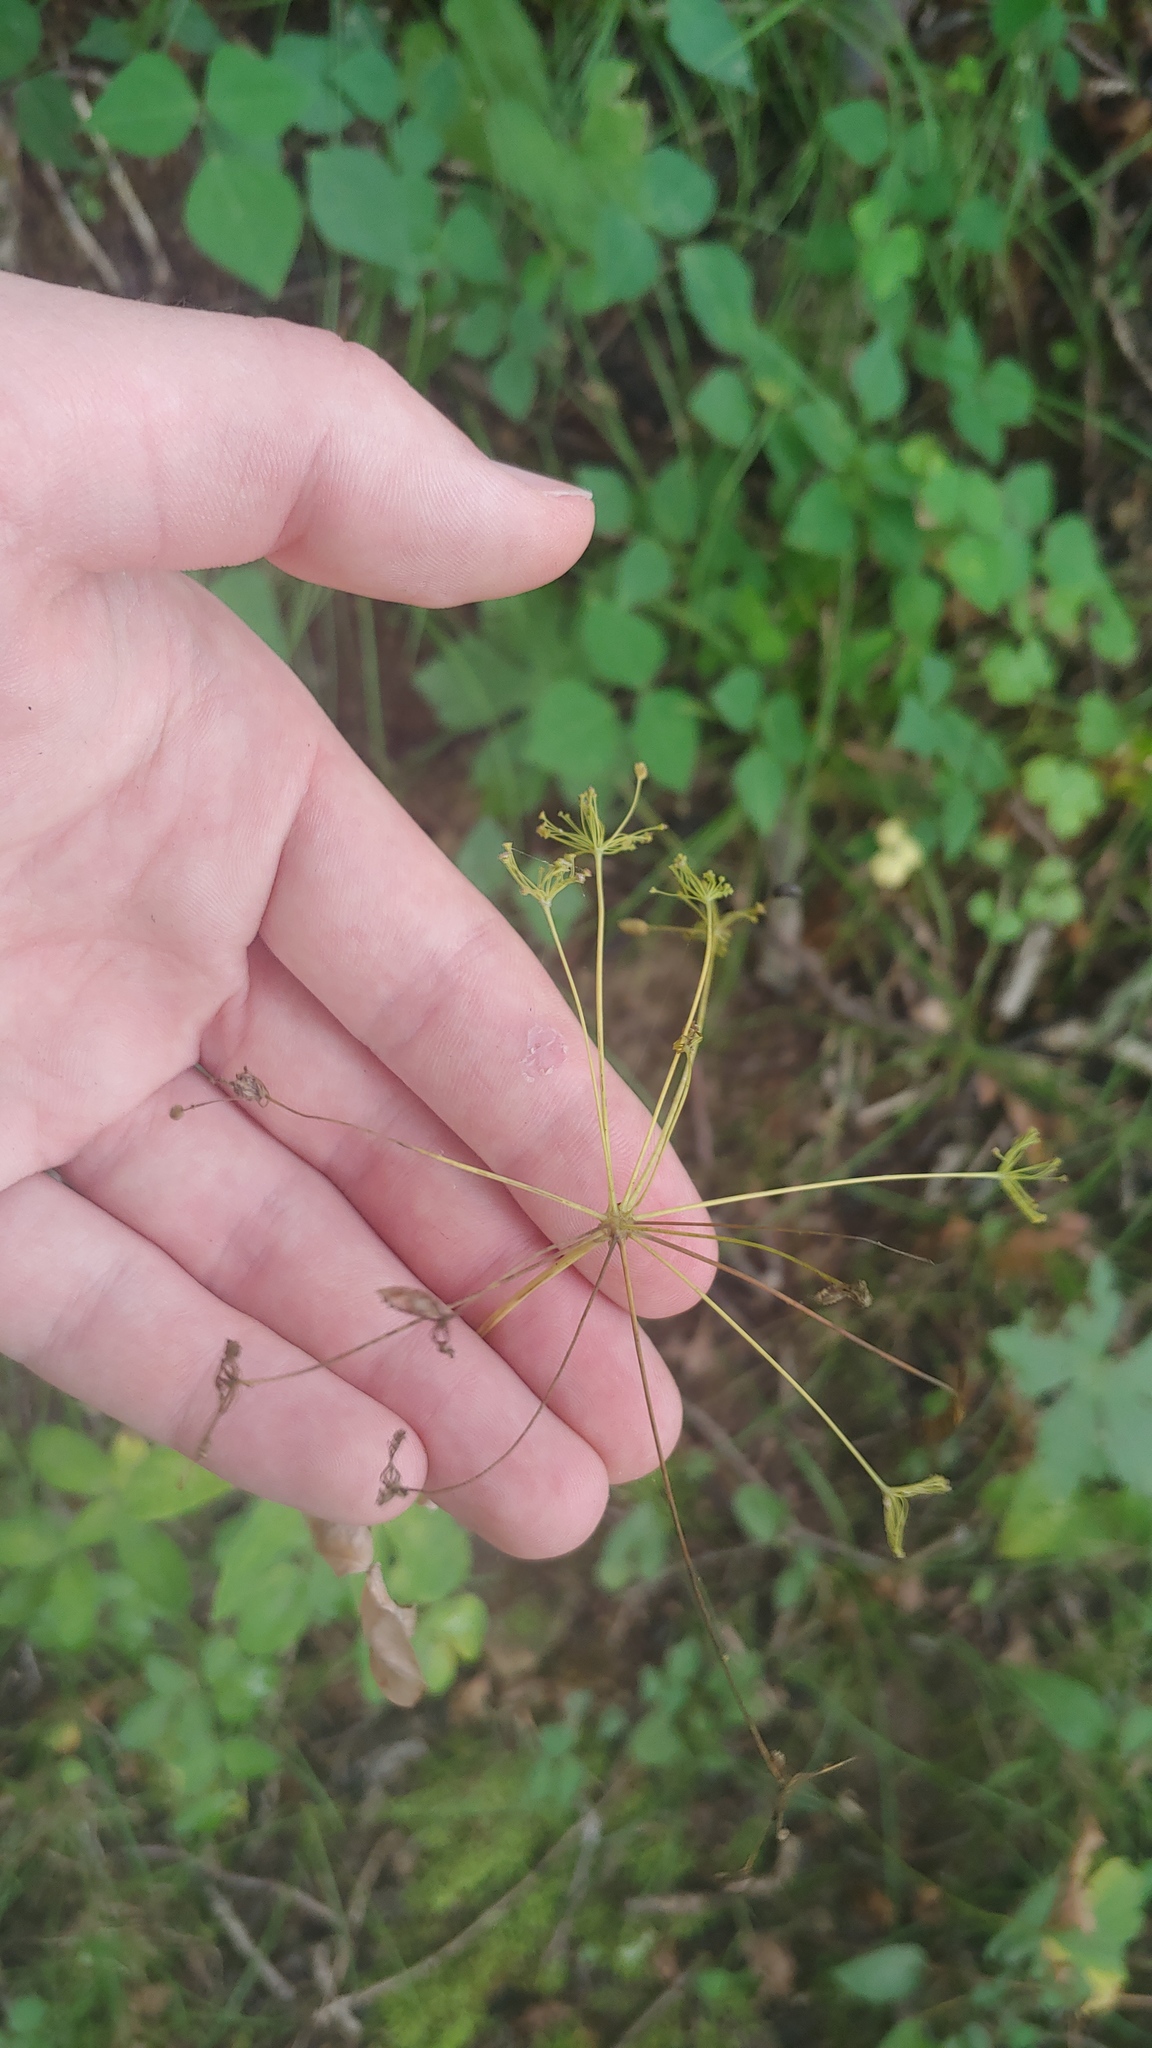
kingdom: Plantae
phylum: Tracheophyta
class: Magnoliopsida
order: Apiales
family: Apiaceae
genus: Taenidia
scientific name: Taenidia integerrima
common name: Golden alexander
